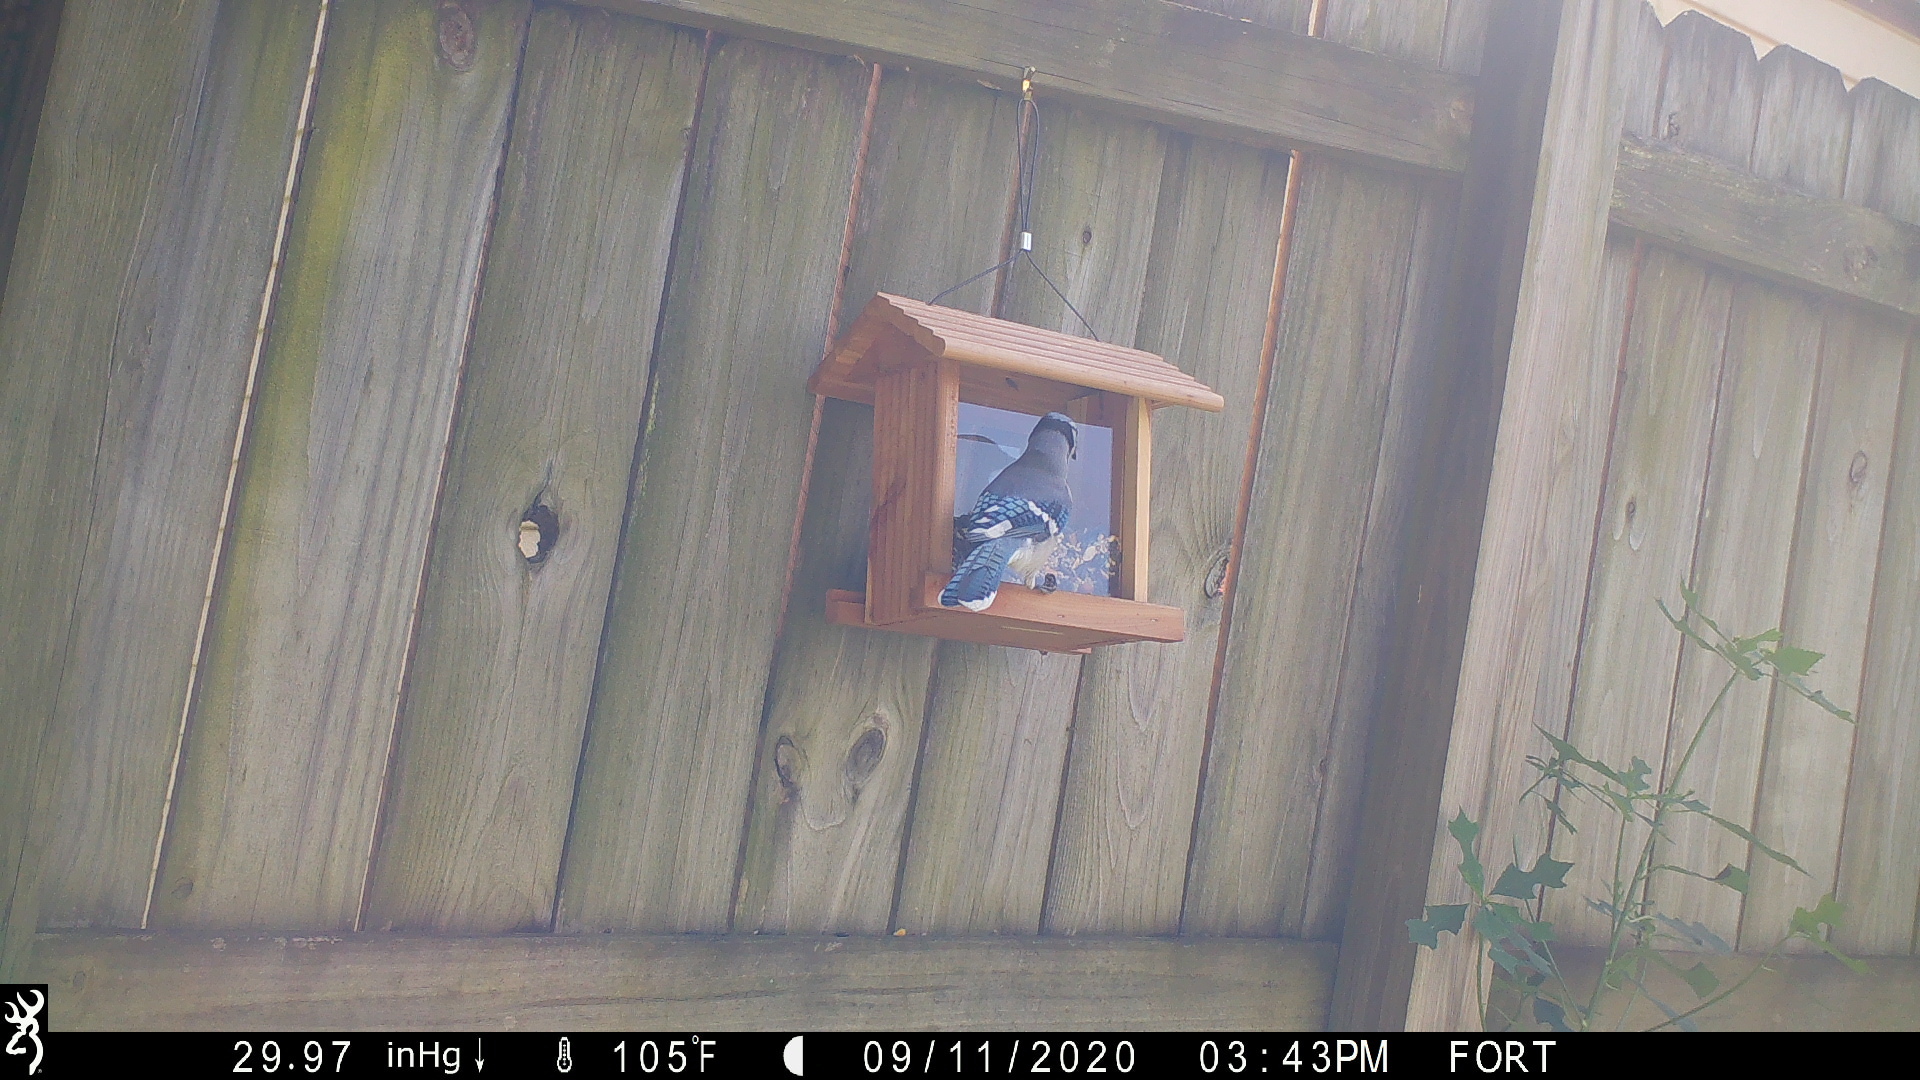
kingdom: Animalia
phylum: Chordata
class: Aves
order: Passeriformes
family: Corvidae
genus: Cyanocitta
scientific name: Cyanocitta cristata
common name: Blue jay
